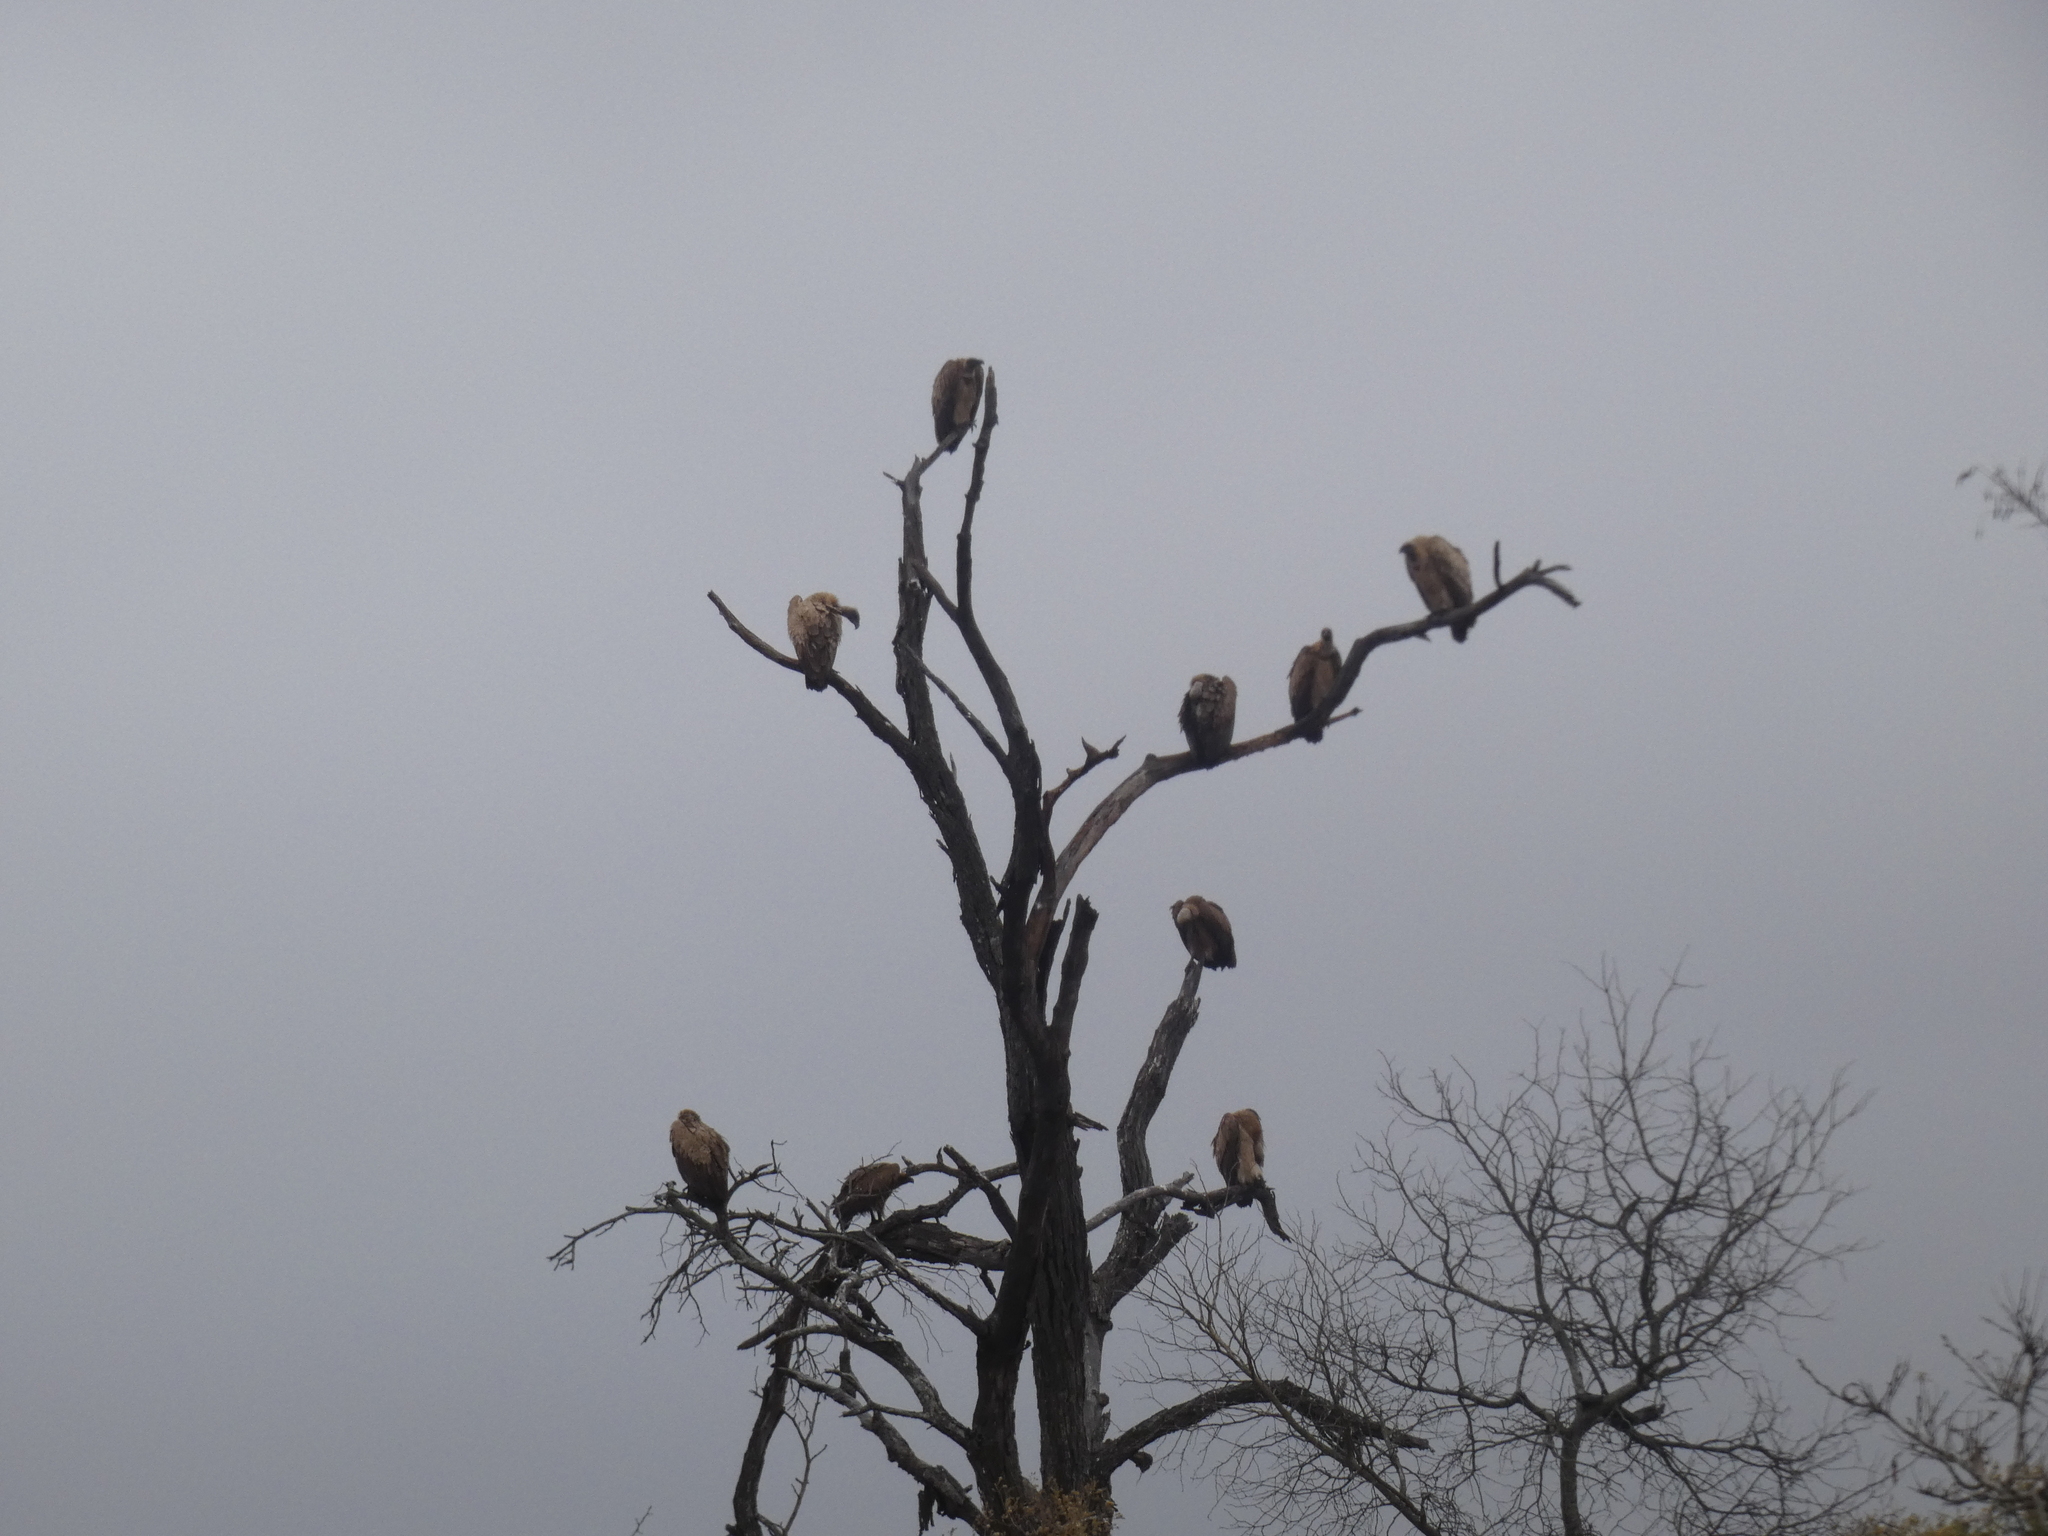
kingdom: Animalia
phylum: Chordata
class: Aves
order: Accipitriformes
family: Accipitridae
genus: Gyps
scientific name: Gyps africanus
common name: White-backed vulture
